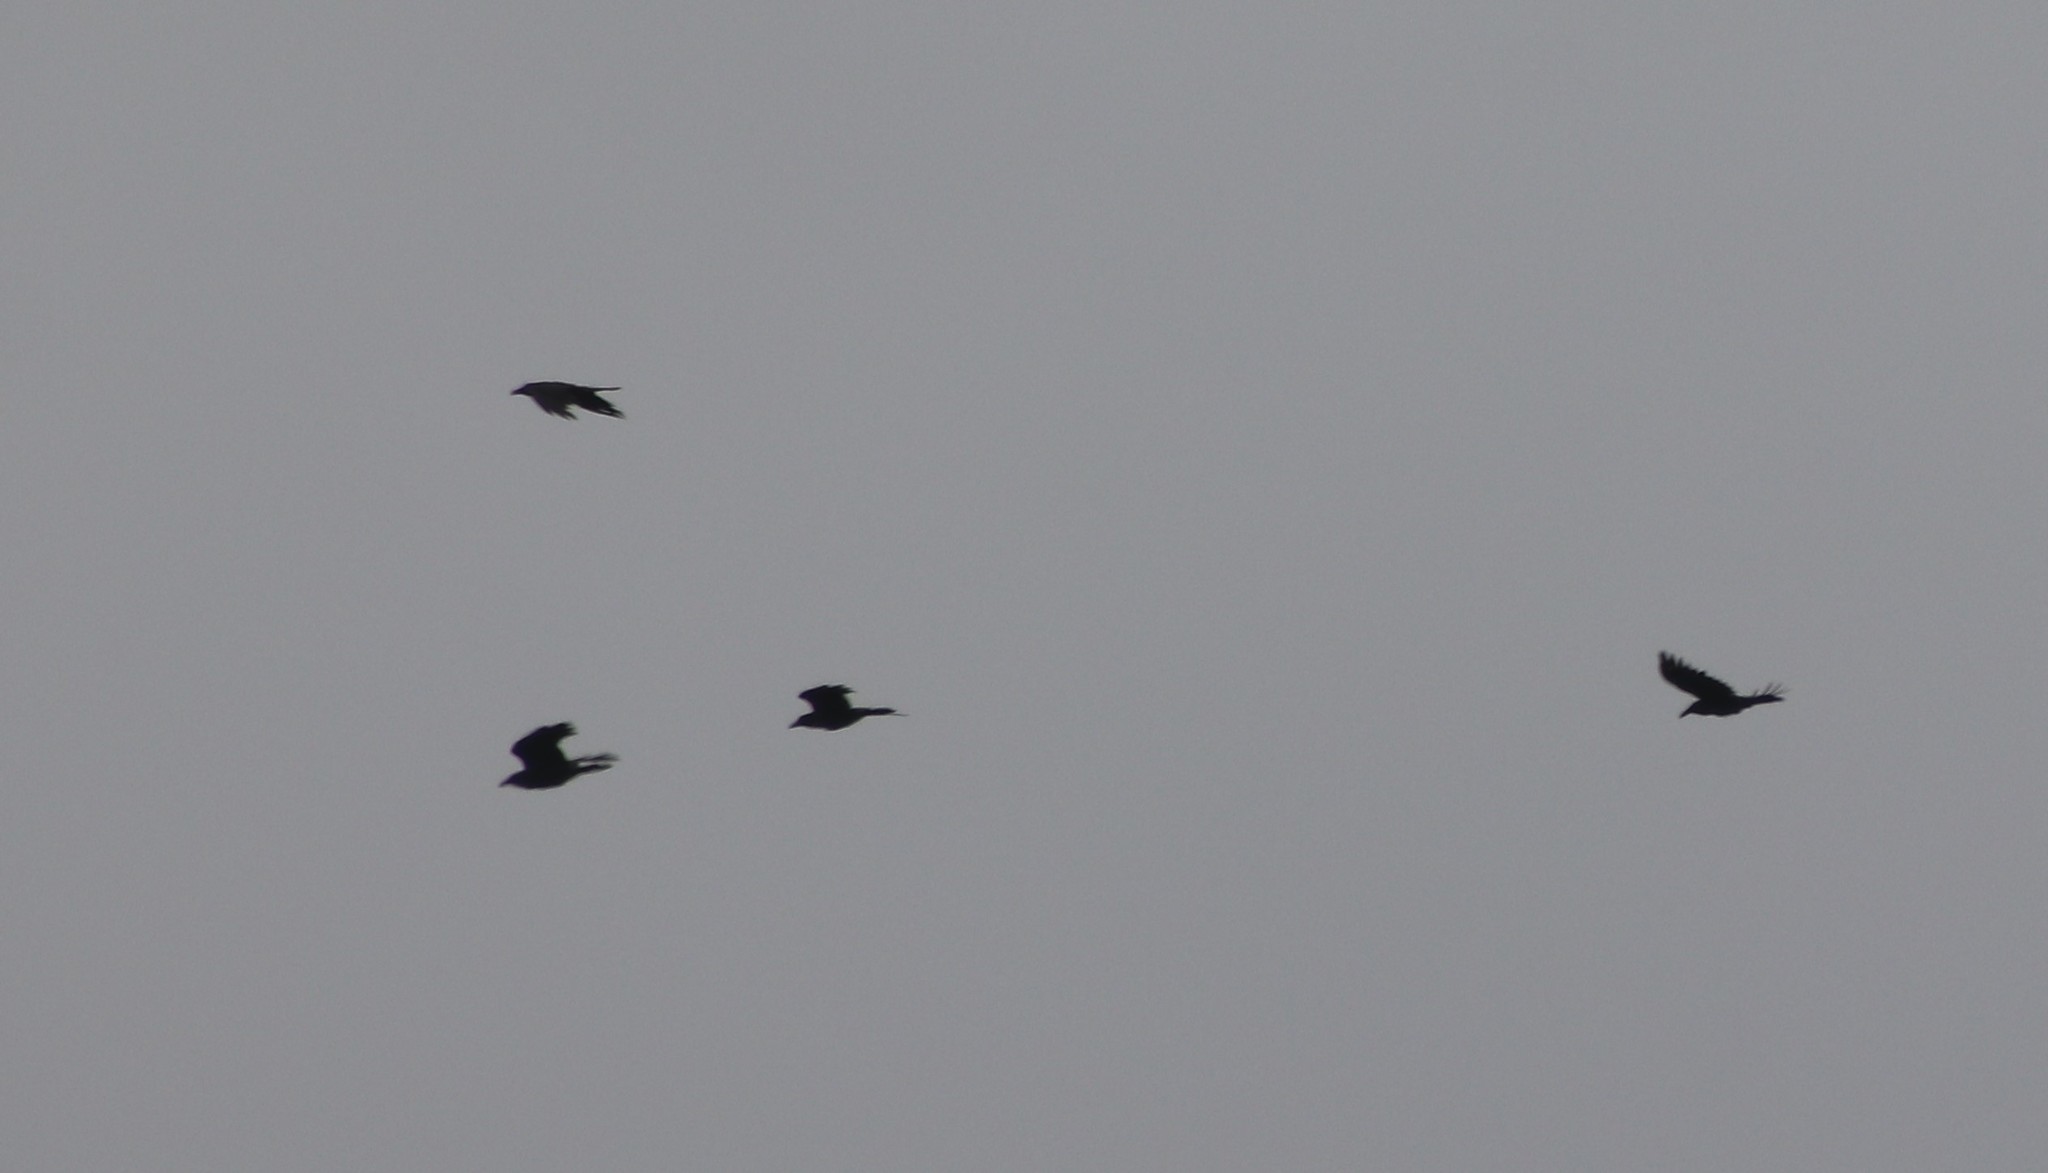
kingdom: Animalia
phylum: Chordata
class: Aves
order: Passeriformes
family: Corvidae
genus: Corvus
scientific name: Corvus corax
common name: Common raven
